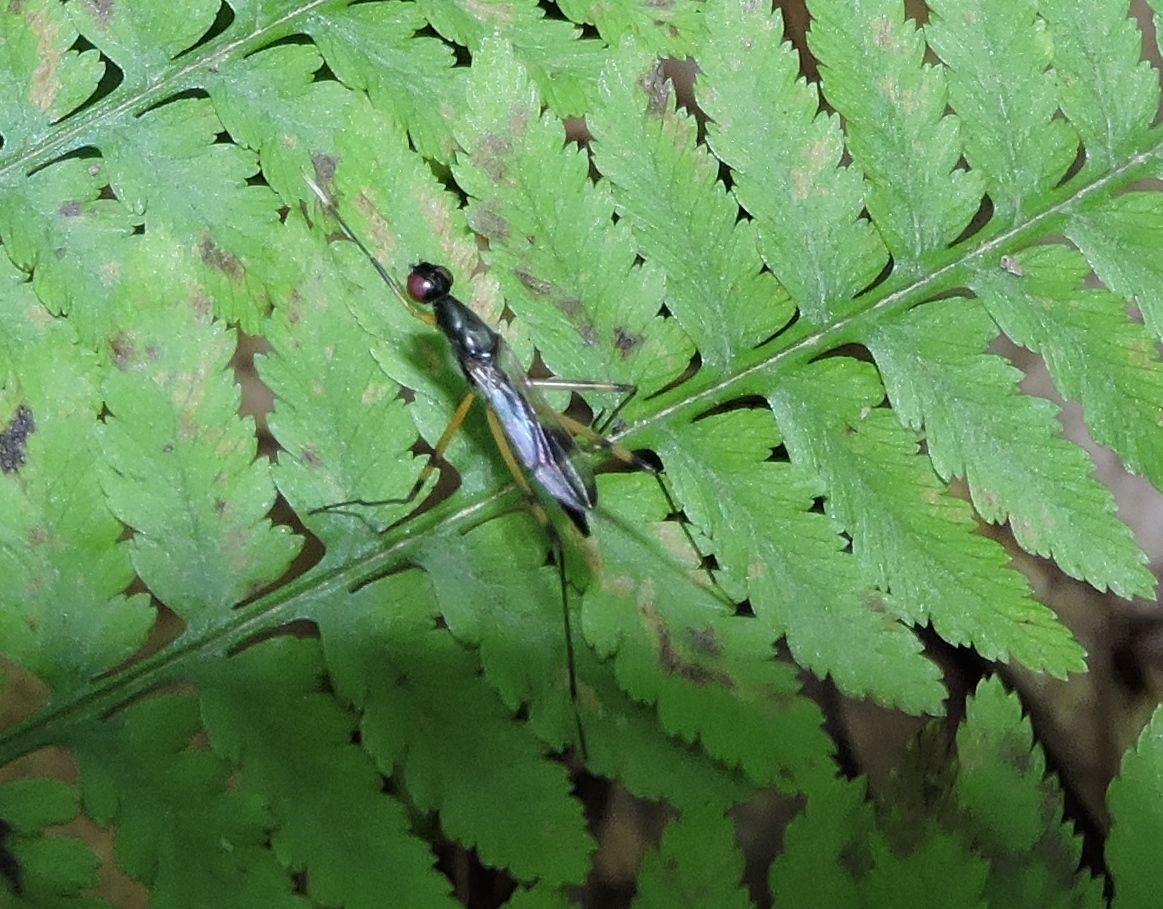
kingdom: Animalia
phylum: Arthropoda
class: Insecta
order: Diptera
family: Micropezidae
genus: Rainieria
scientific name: Rainieria antennaepes
